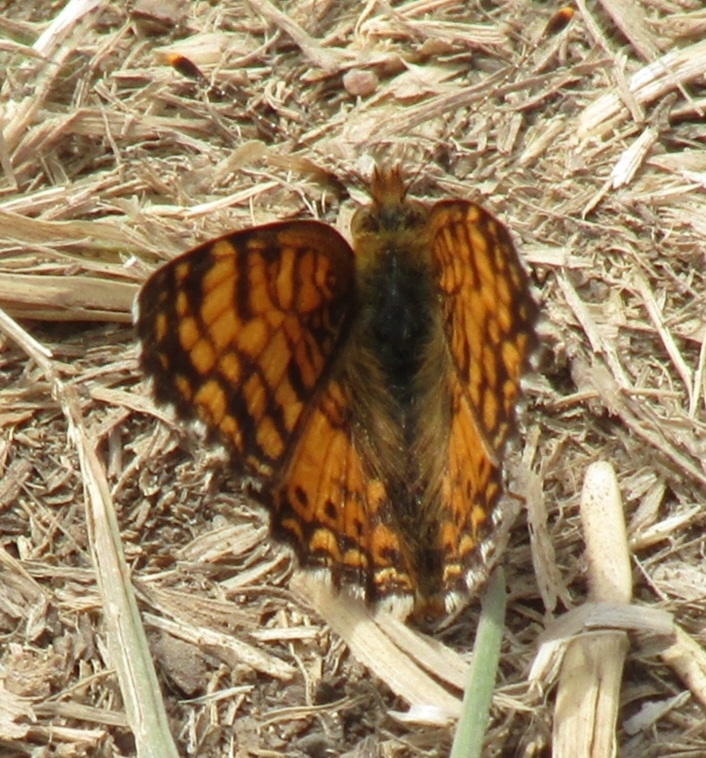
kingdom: Animalia
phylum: Arthropoda
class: Insecta
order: Lepidoptera
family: Nymphalidae
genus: Eresia
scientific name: Eresia aveyrona
